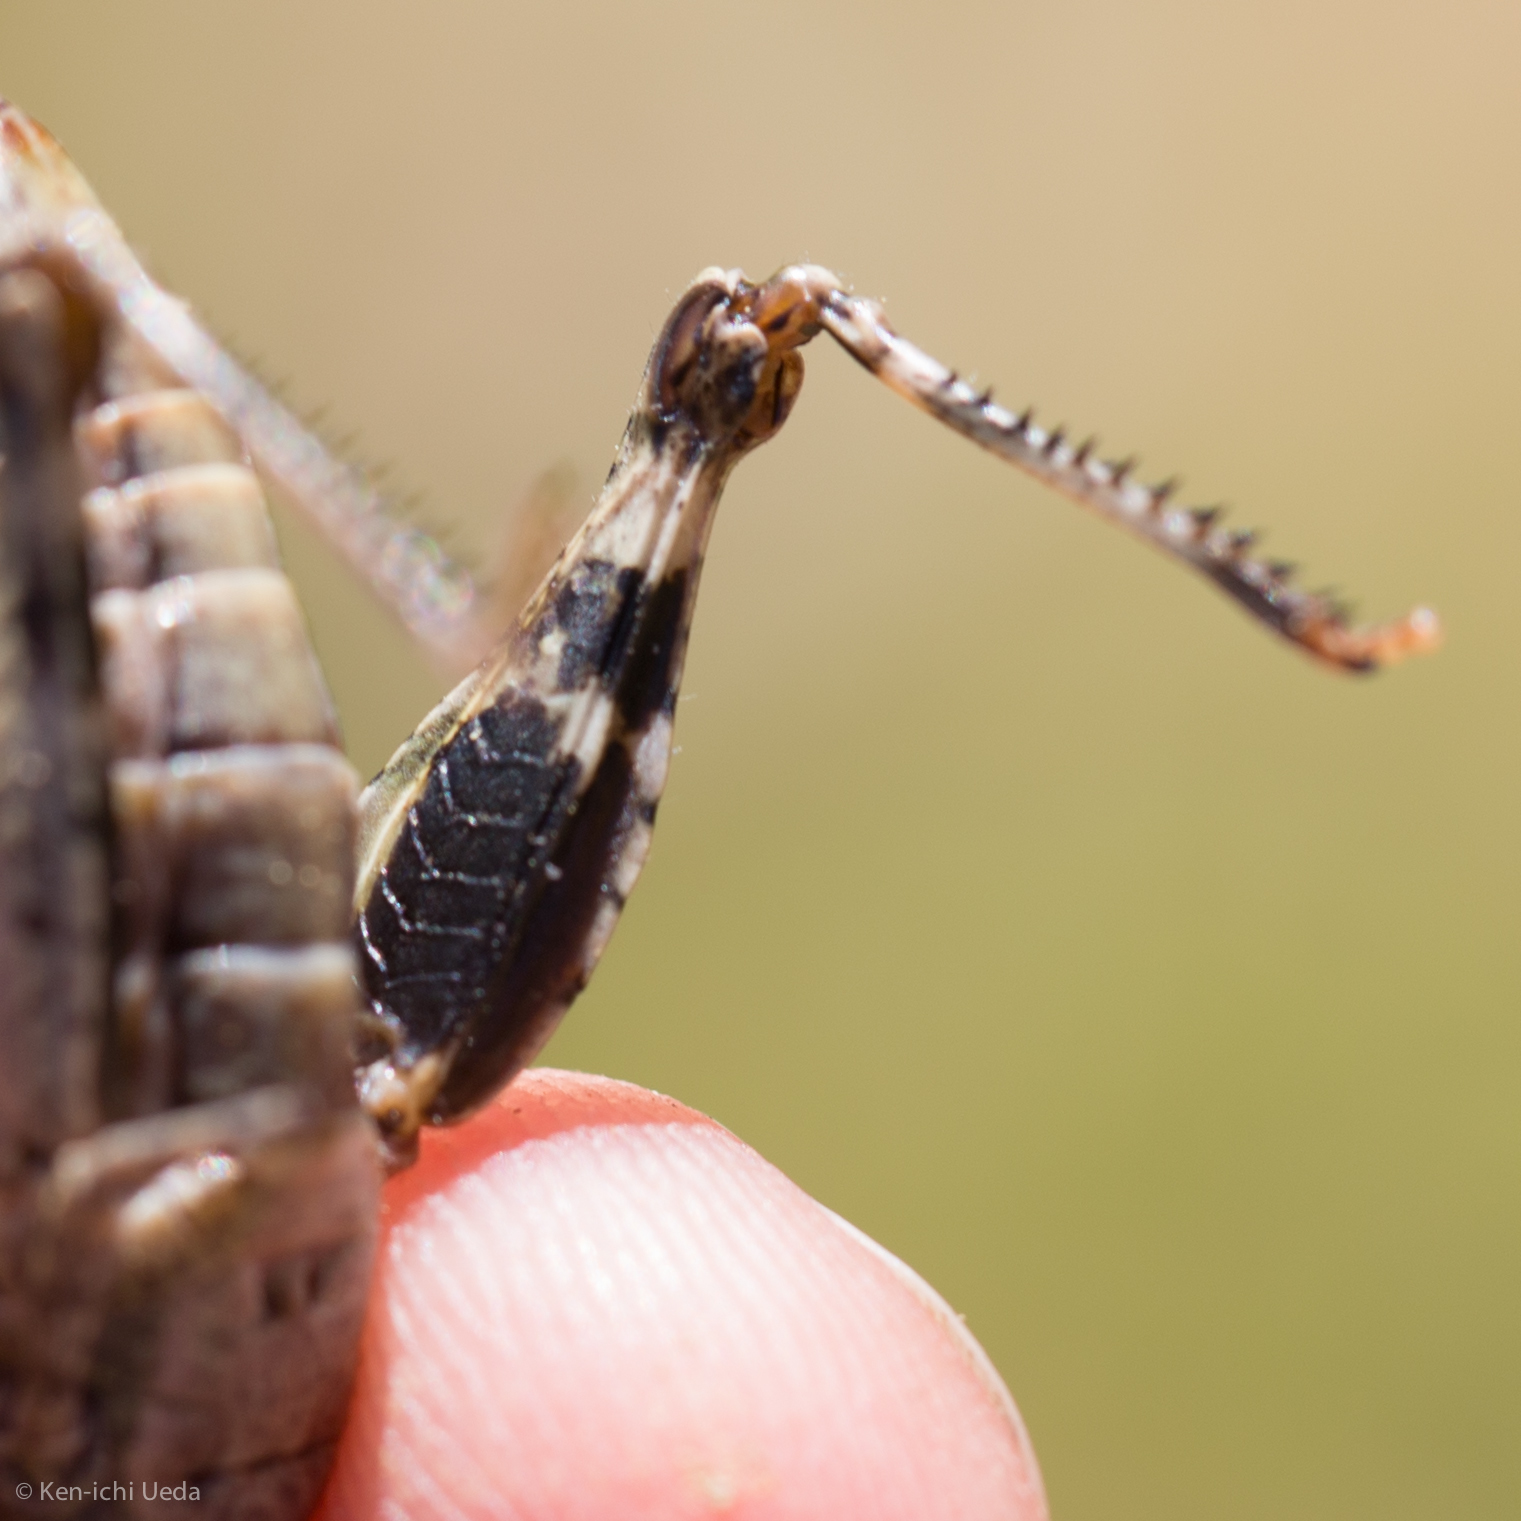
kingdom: Animalia
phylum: Arthropoda
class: Insecta
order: Orthoptera
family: Acrididae
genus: Chimarocephala
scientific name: Chimarocephala pacifica
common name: Painted meadow grasshopper
